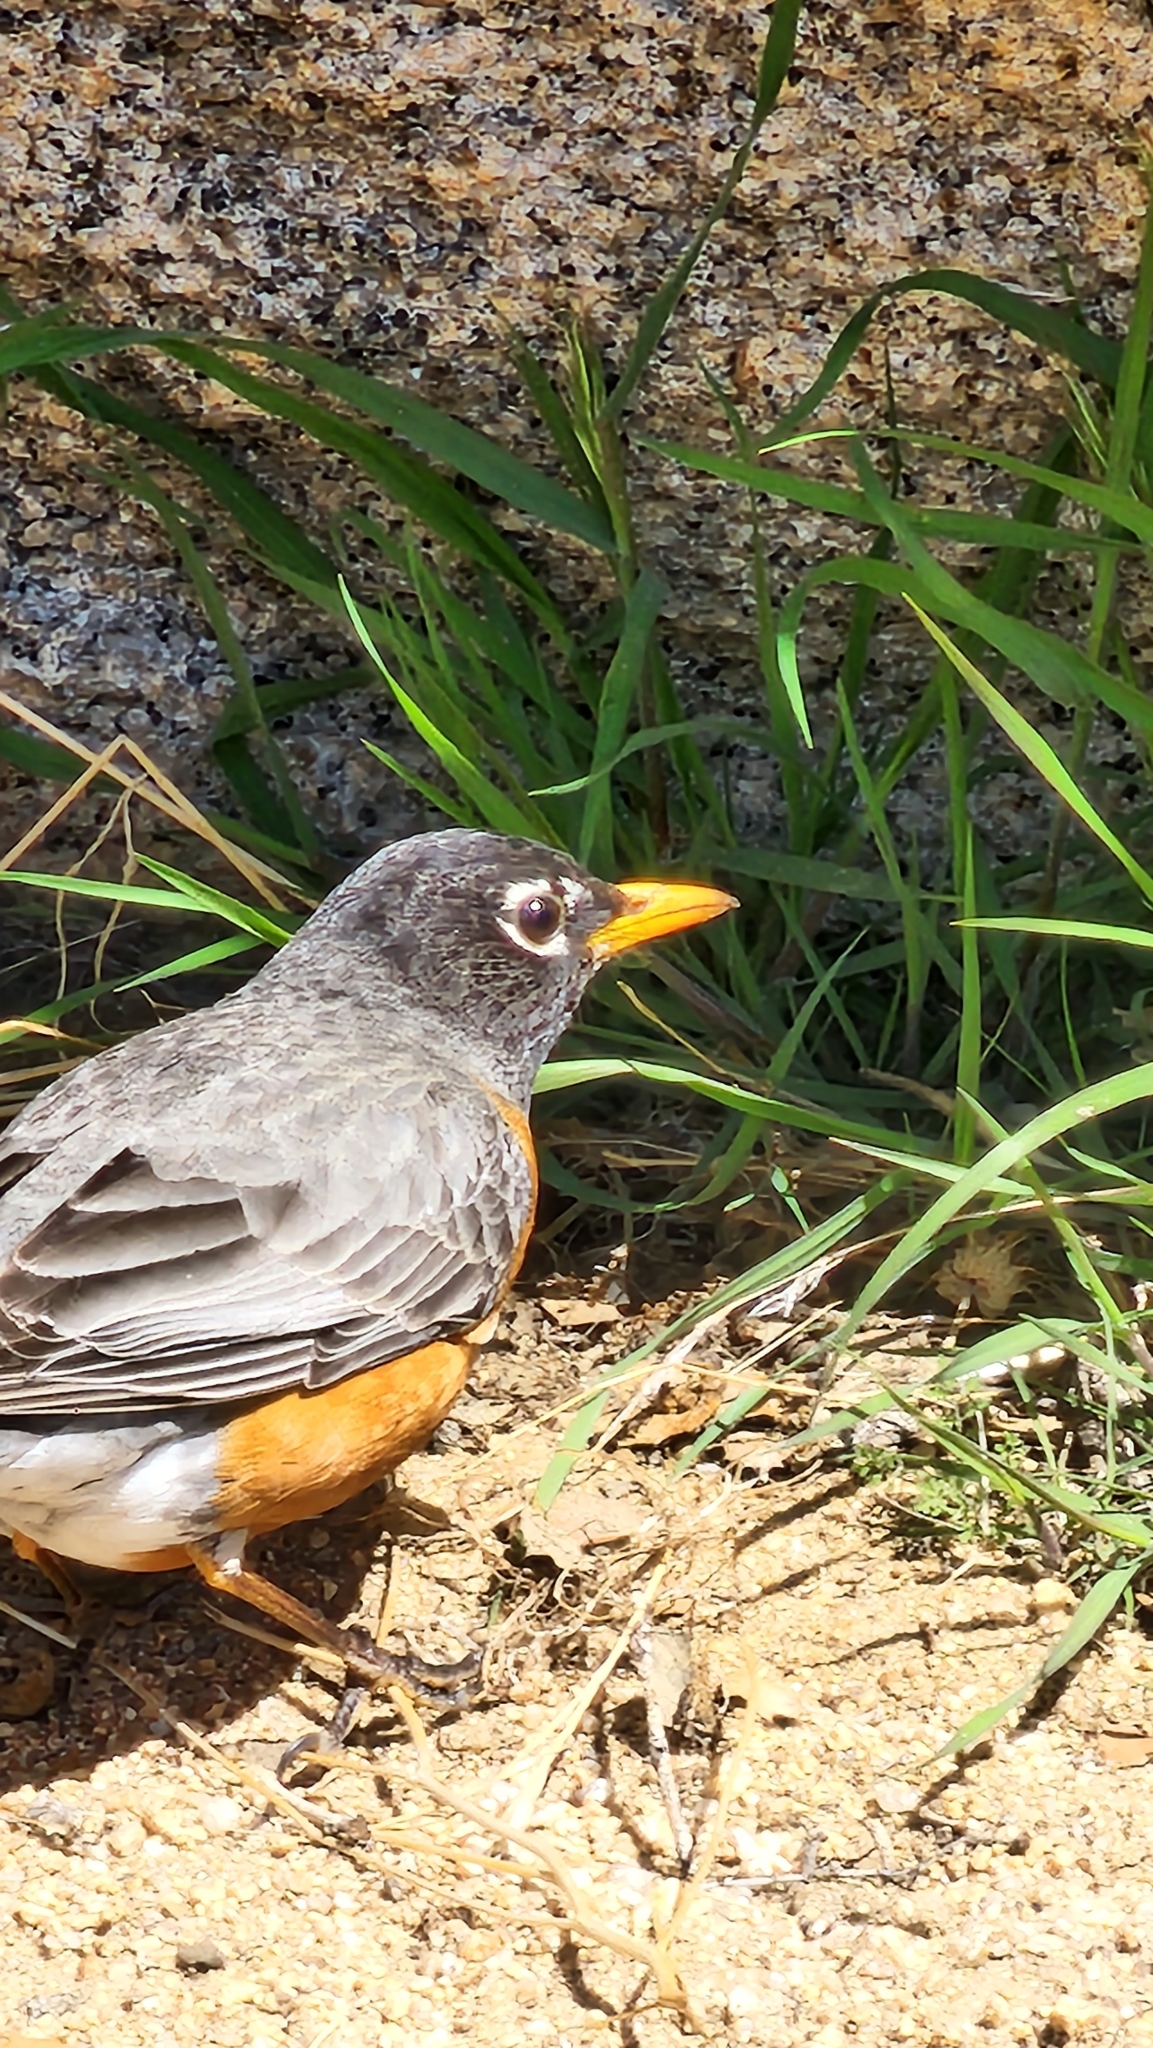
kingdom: Animalia
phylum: Chordata
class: Aves
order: Passeriformes
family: Turdidae
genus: Turdus
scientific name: Turdus migratorius
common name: American robin
